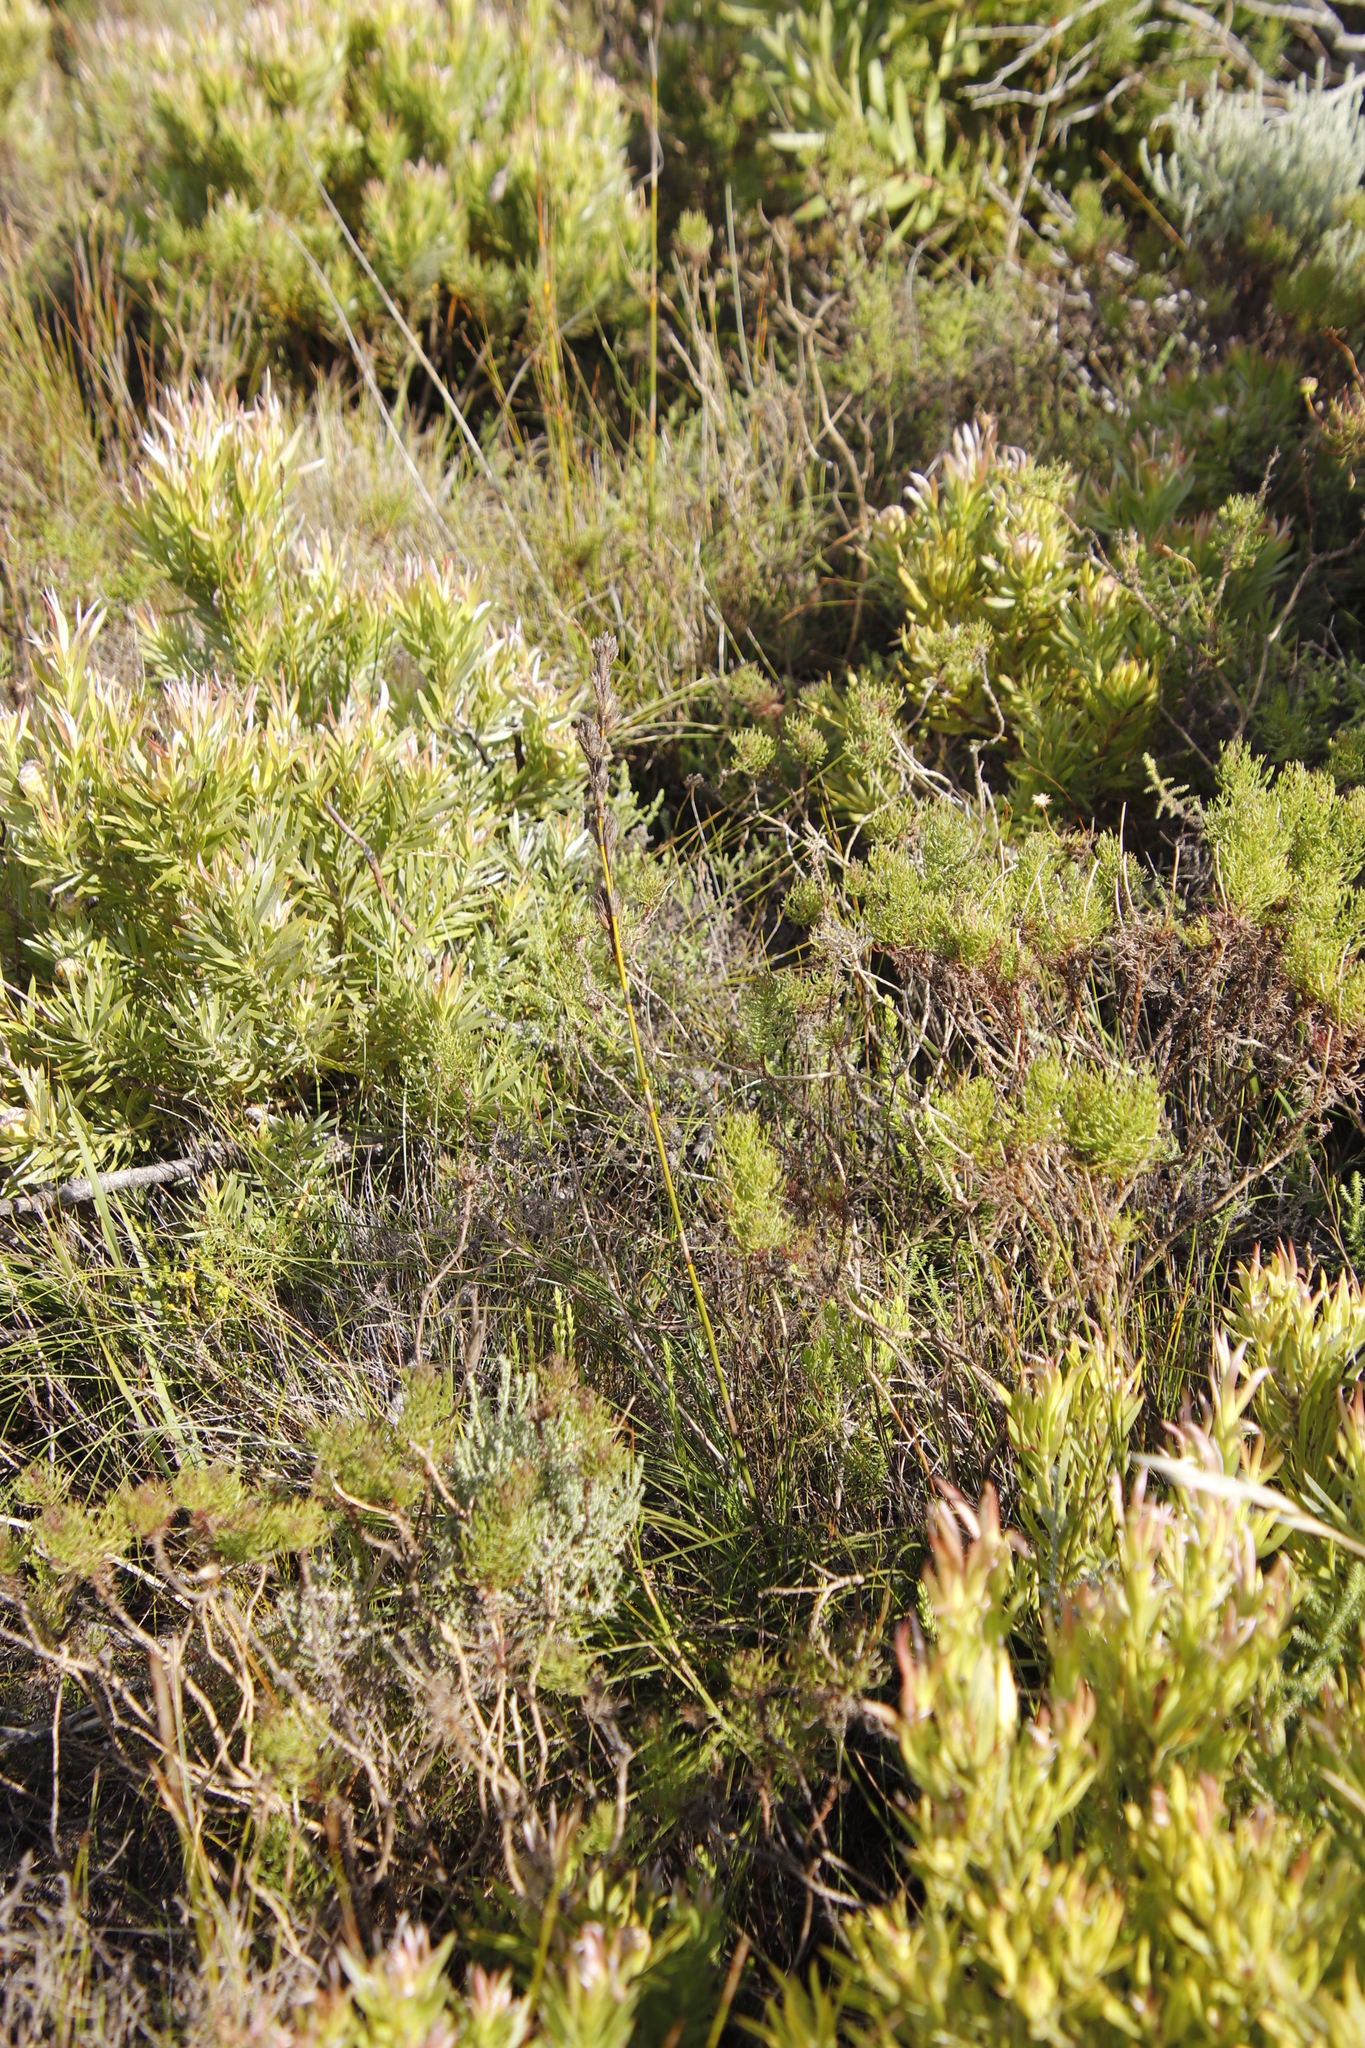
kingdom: Plantae
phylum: Tracheophyta
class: Liliopsida
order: Poales
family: Cyperaceae
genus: Tetraria
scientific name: Tetraria bromoides
